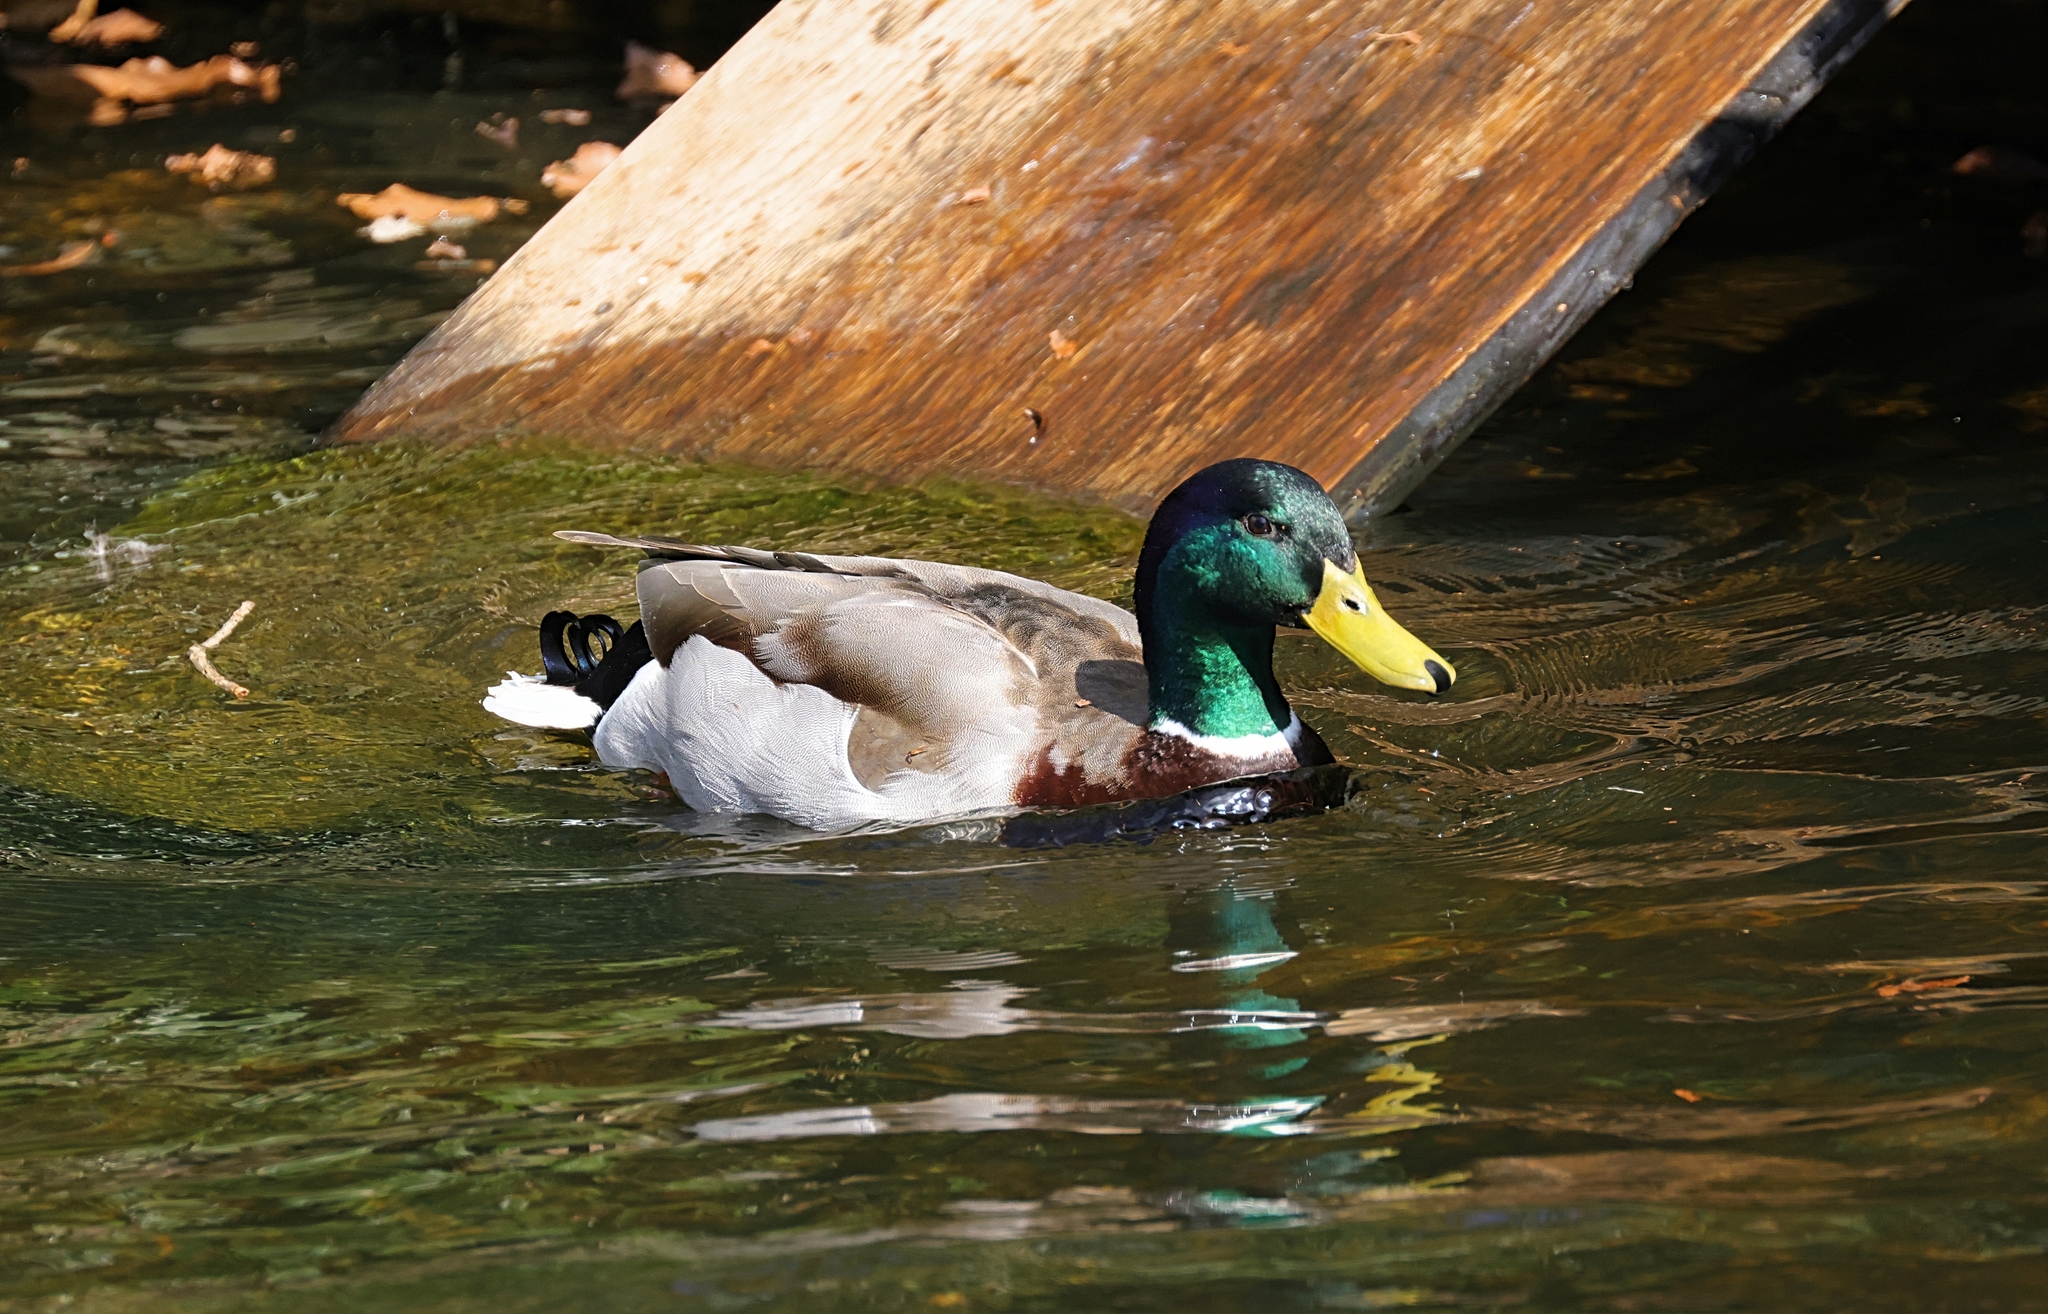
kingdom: Animalia
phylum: Chordata
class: Aves
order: Anseriformes
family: Anatidae
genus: Anas
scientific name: Anas platyrhynchos
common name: Mallard
